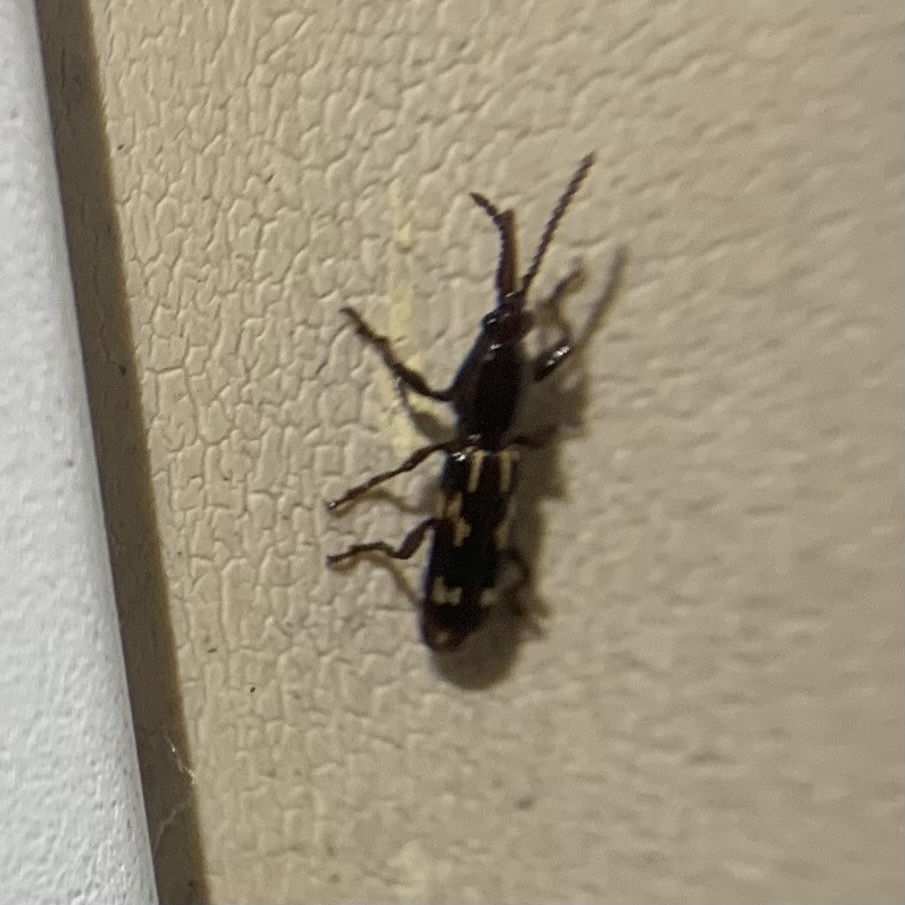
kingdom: Animalia
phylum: Arthropoda
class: Insecta
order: Coleoptera
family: Brentidae
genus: Arrenodes
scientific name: Arrenodes minutus
